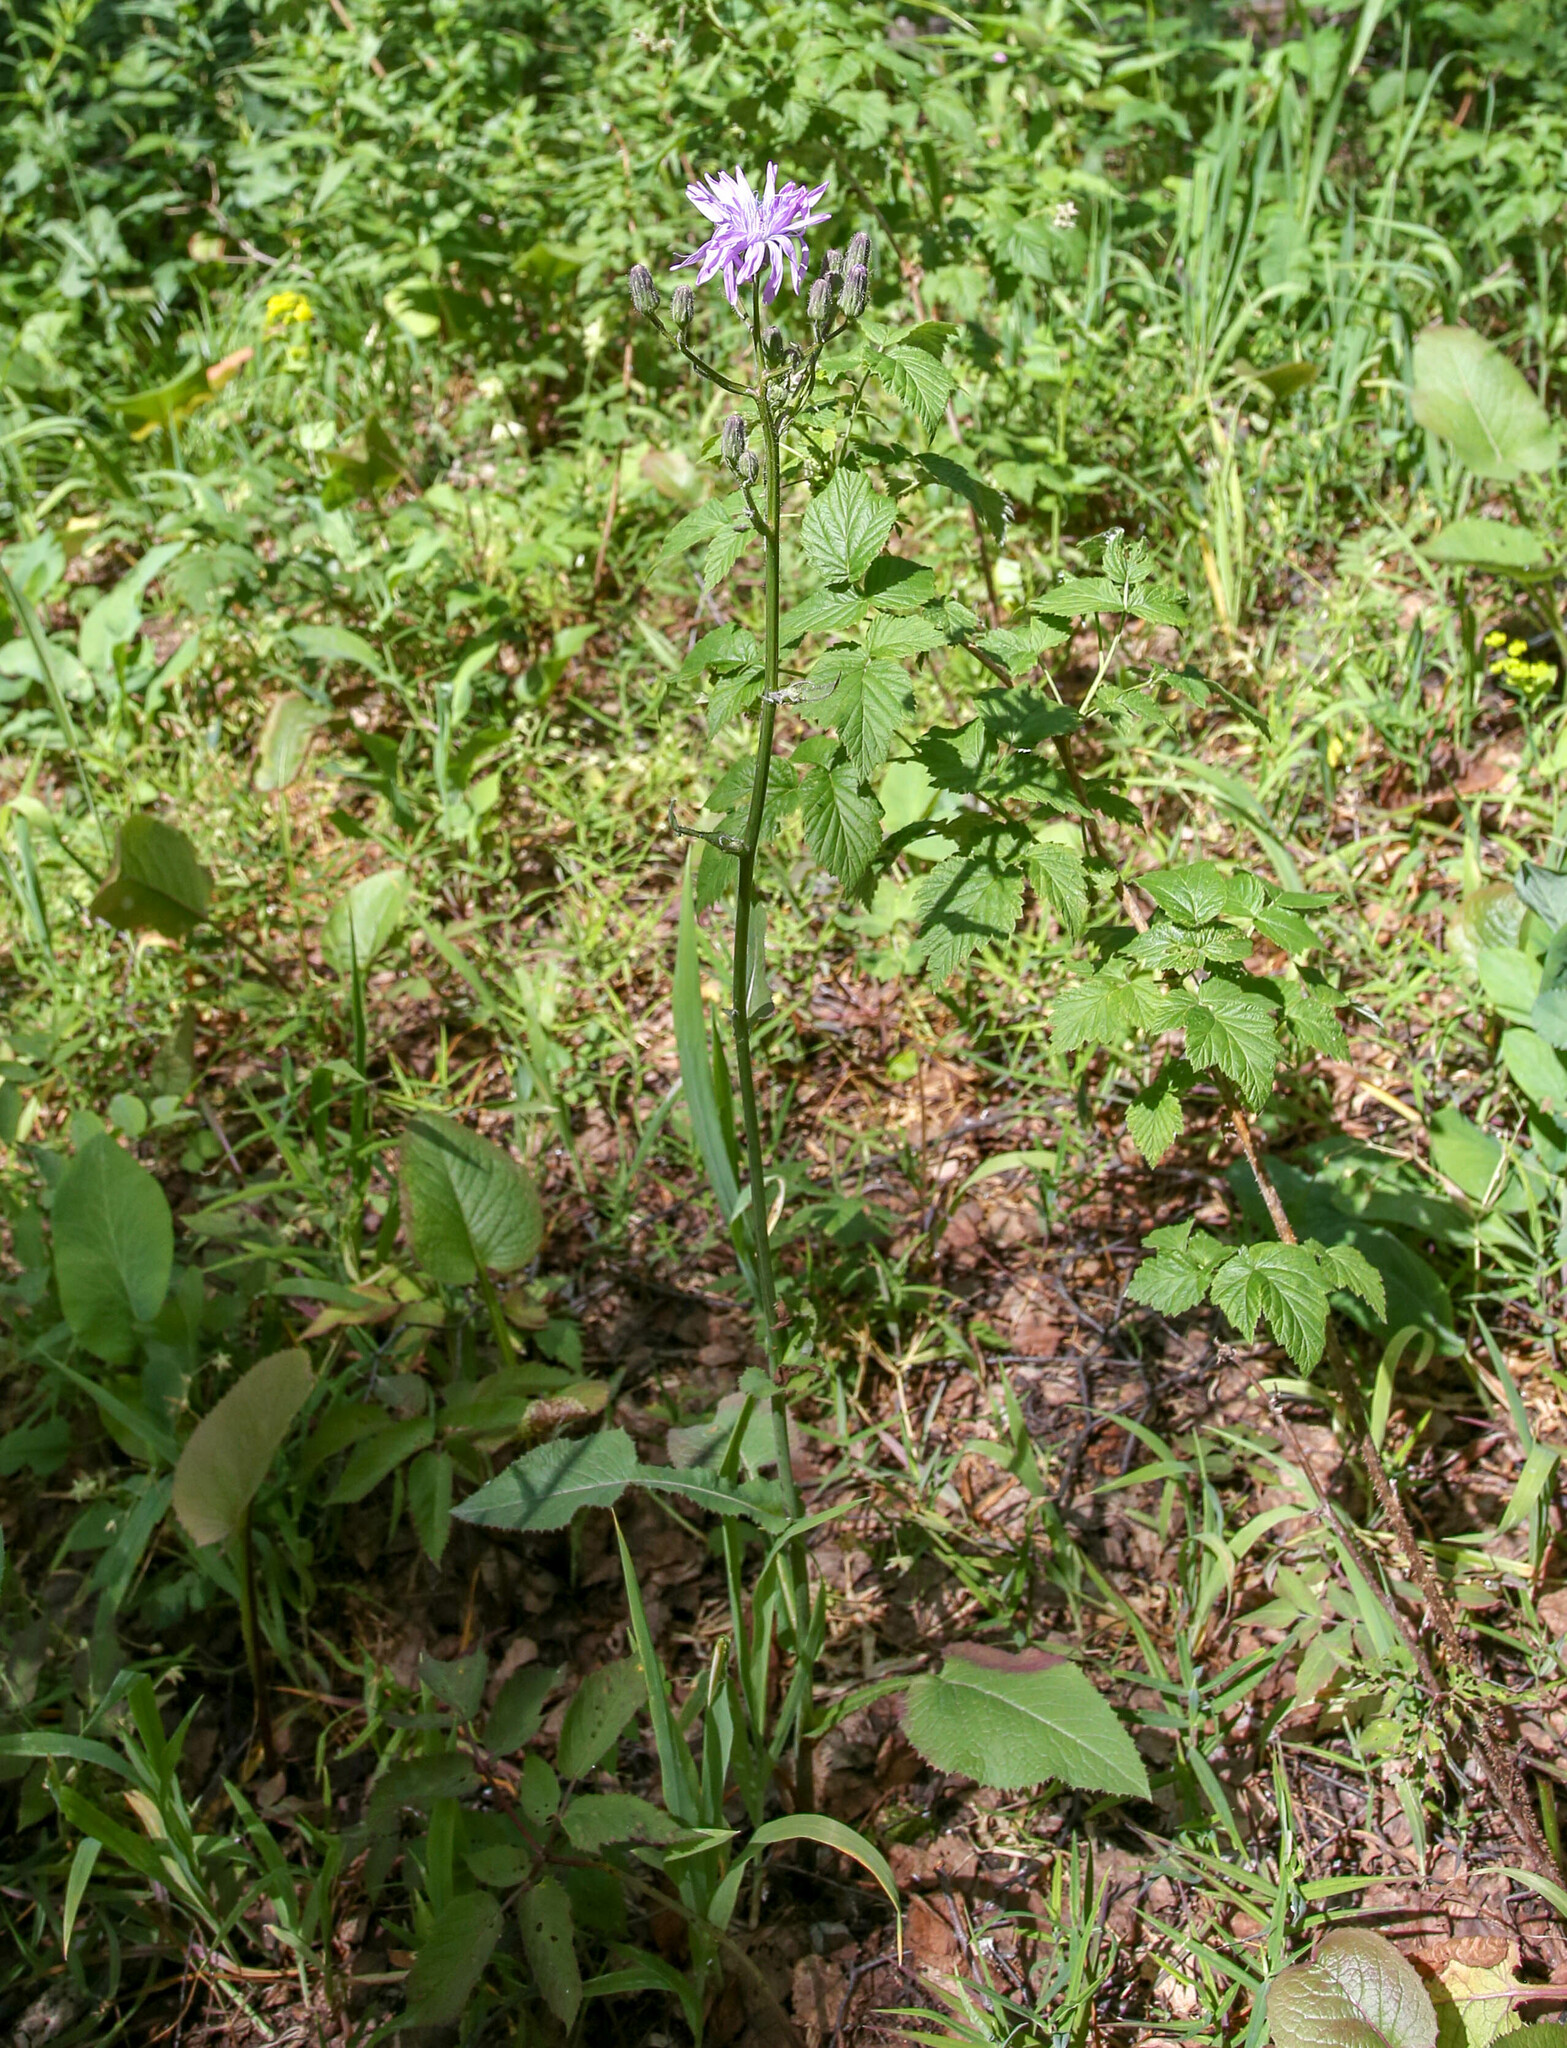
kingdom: Plantae
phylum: Tracheophyta
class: Magnoliopsida
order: Asterales
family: Asteraceae
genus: Lactuca
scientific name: Lactuca macrophylla
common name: Common blue-sow-thistle
